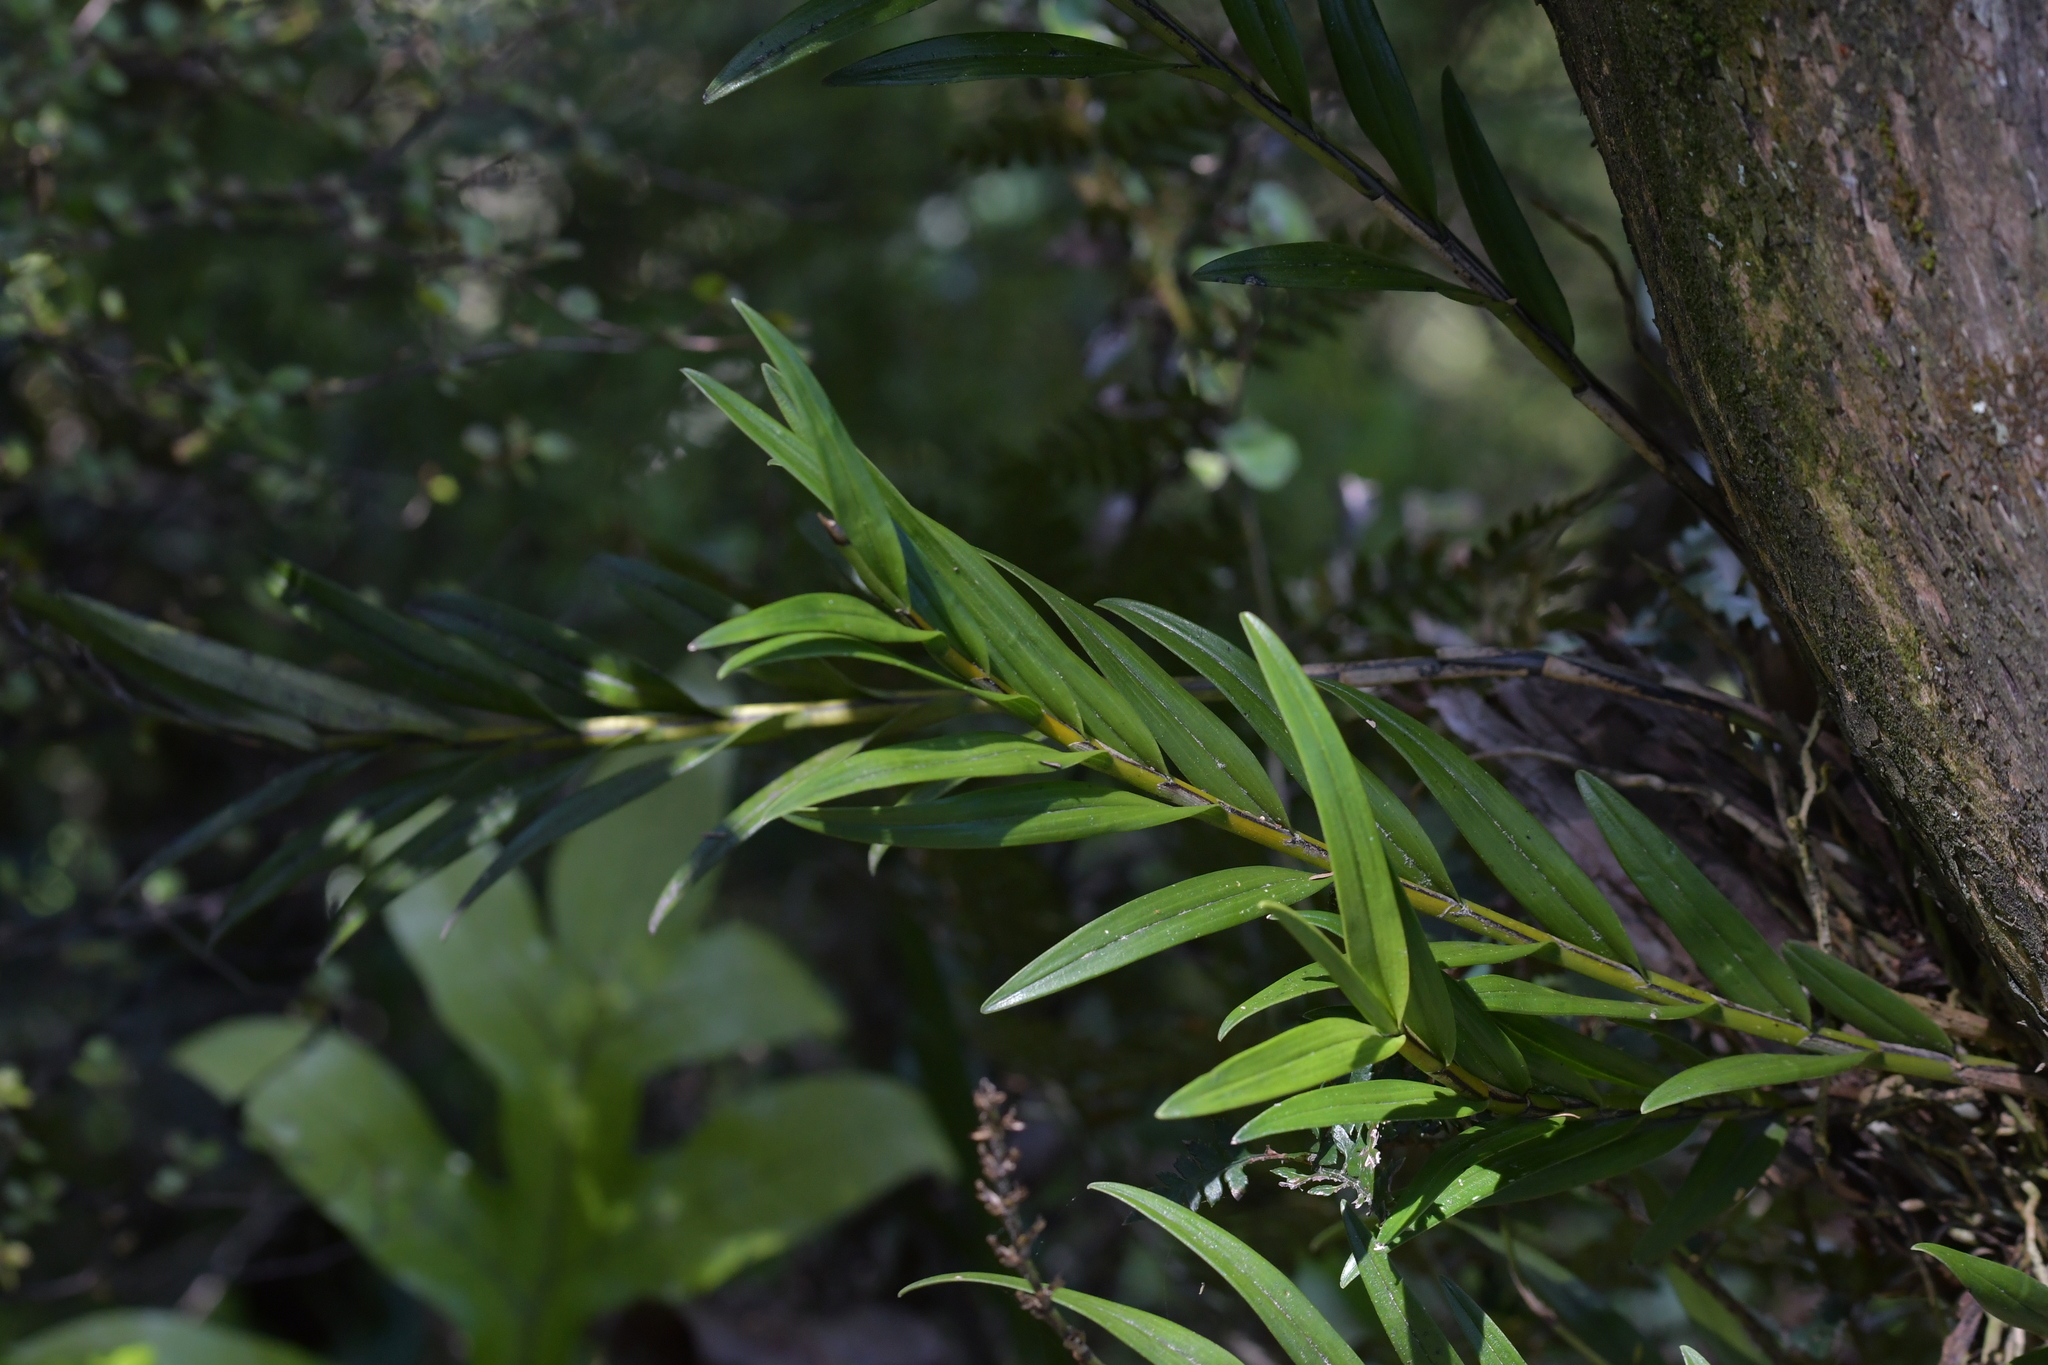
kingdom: Plantae
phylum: Tracheophyta
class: Liliopsida
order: Asparagales
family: Orchidaceae
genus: Earina
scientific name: Earina autumnalis
